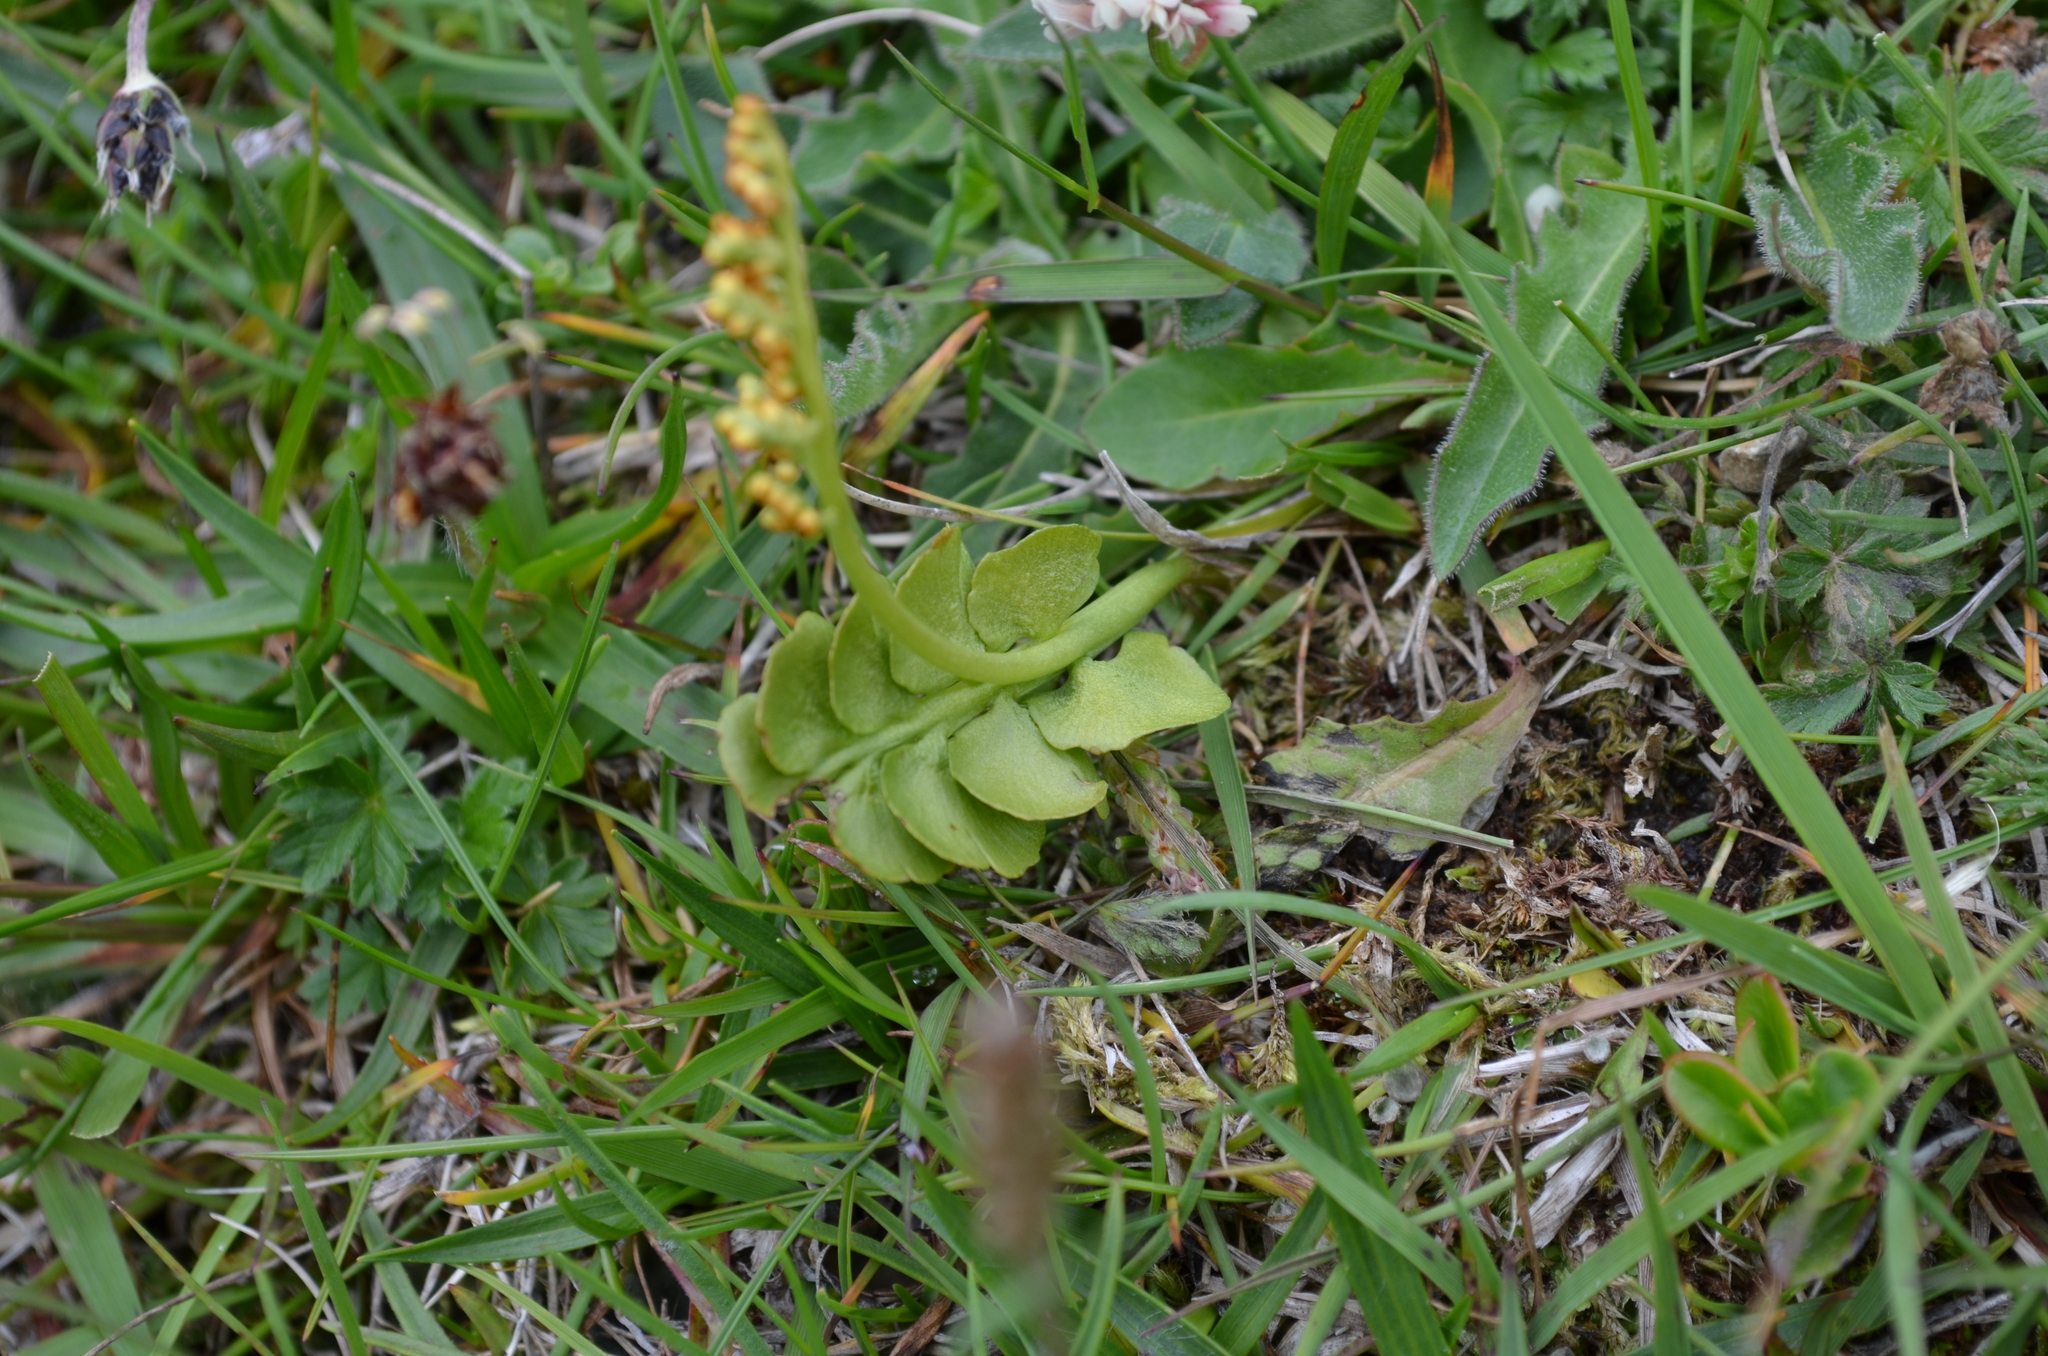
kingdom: Plantae
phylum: Tracheophyta
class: Polypodiopsida
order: Ophioglossales
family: Ophioglossaceae
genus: Botrychium
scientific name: Botrychium lunaria
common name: Moonwort
